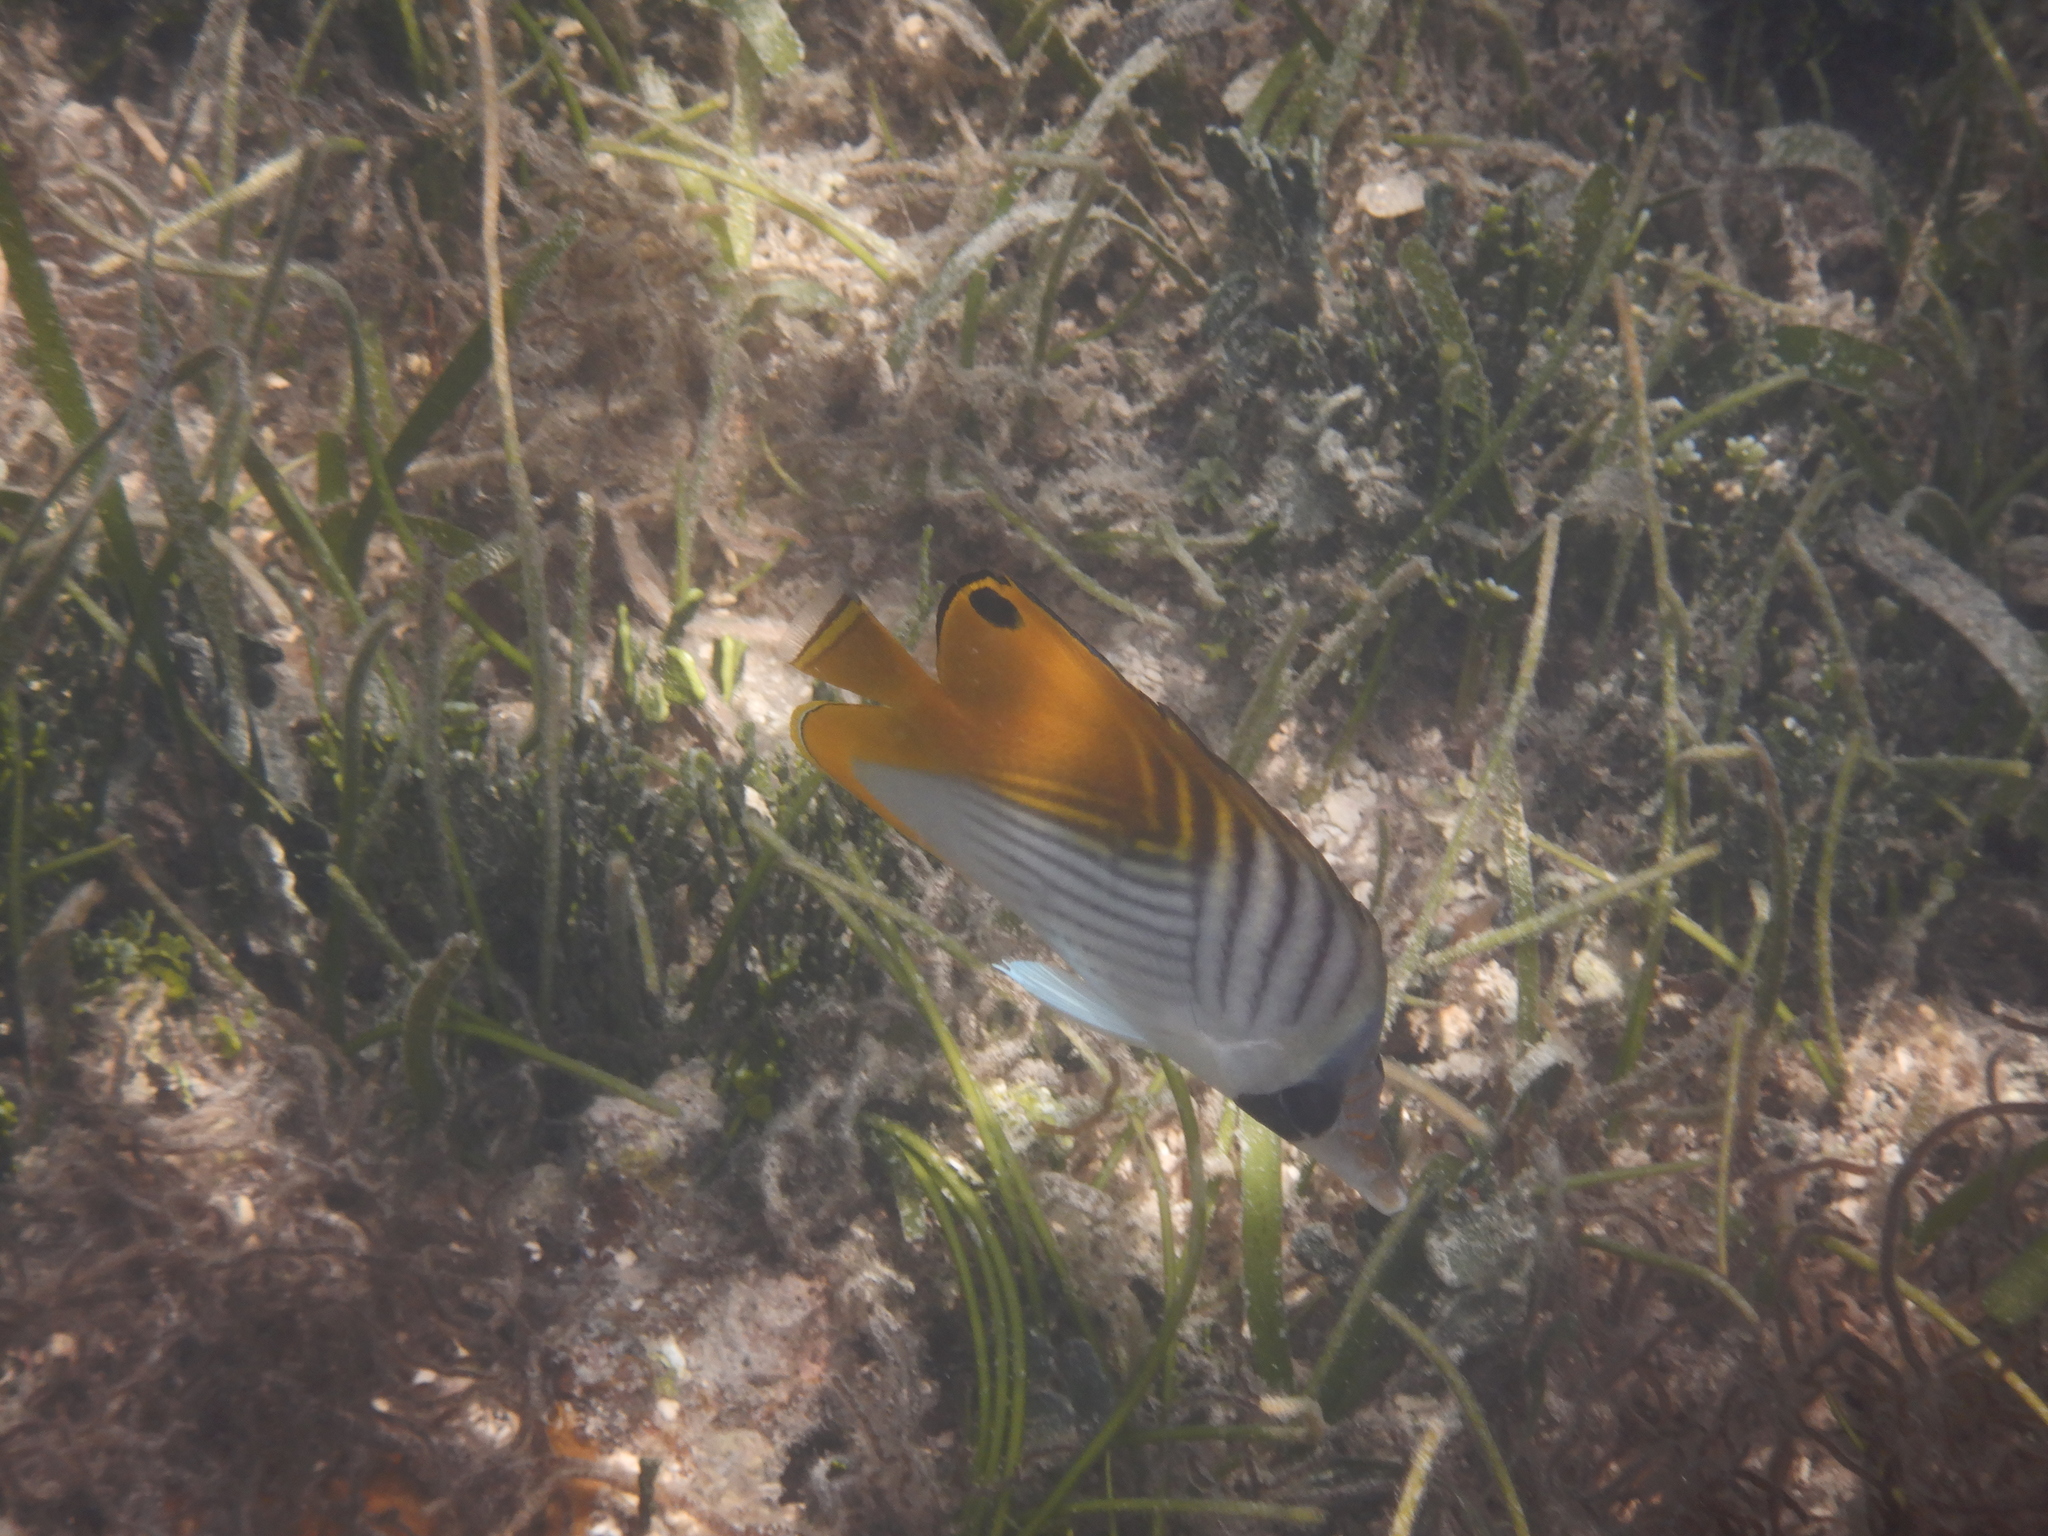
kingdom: Animalia
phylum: Chordata
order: Perciformes
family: Chaetodontidae
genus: Chaetodon
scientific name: Chaetodon auriga
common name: Threadfin butterflyfish
